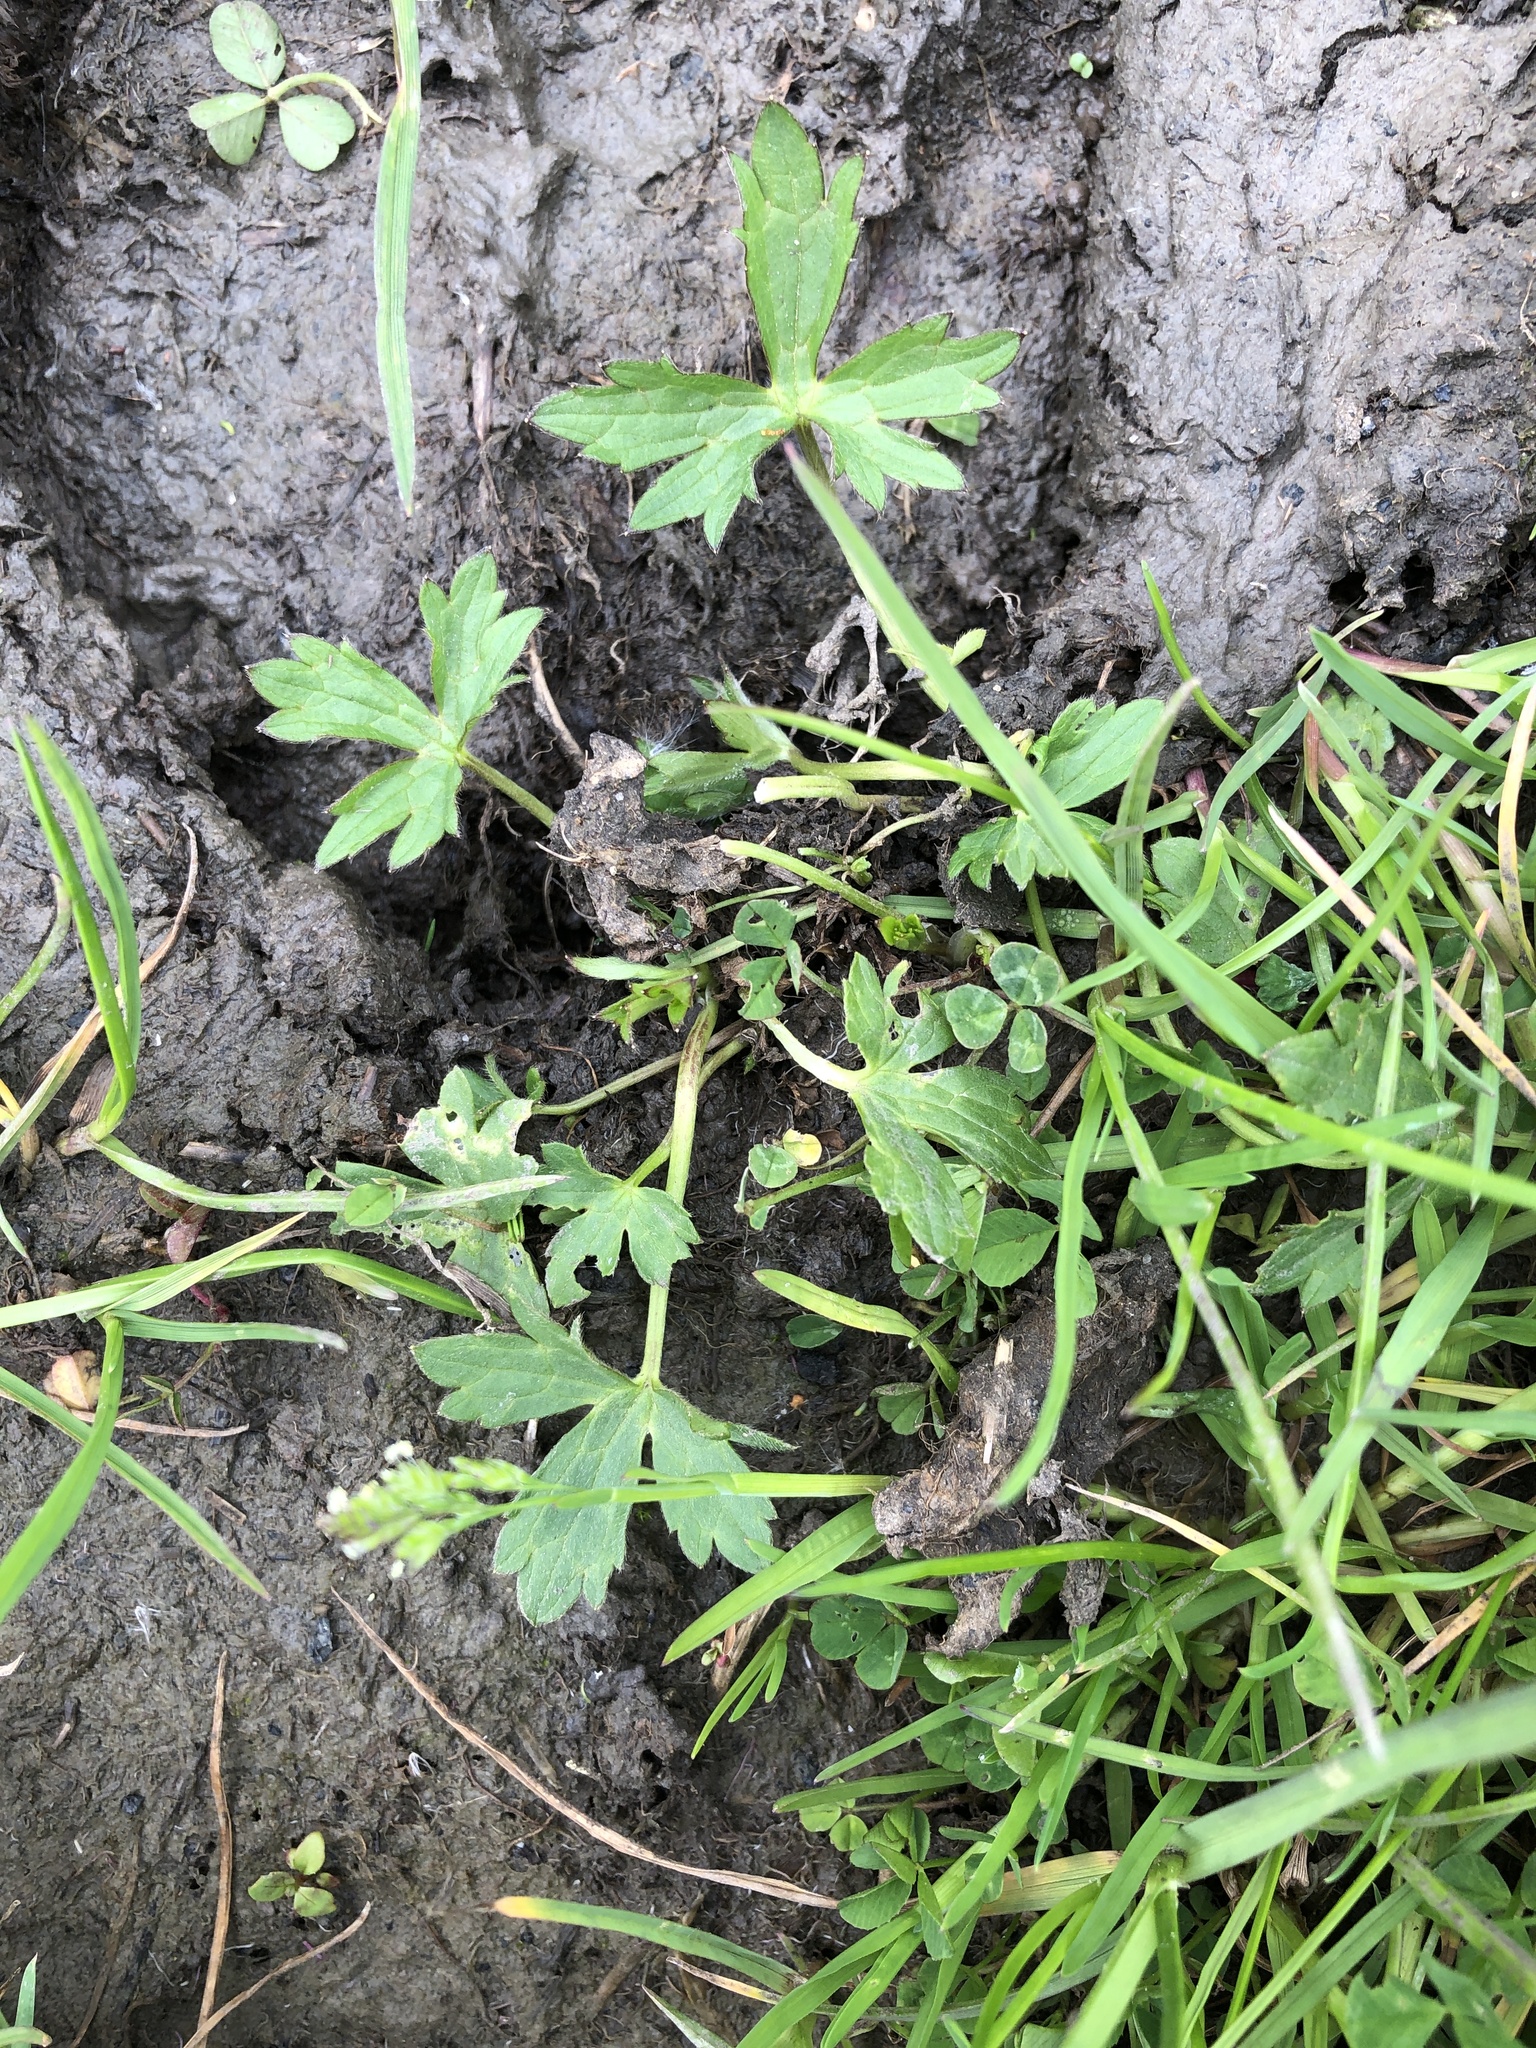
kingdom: Plantae
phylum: Tracheophyta
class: Magnoliopsida
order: Ranunculales
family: Ranunculaceae
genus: Ranunculus
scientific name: Ranunculus sceleratus
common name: Celery-leaved buttercup
